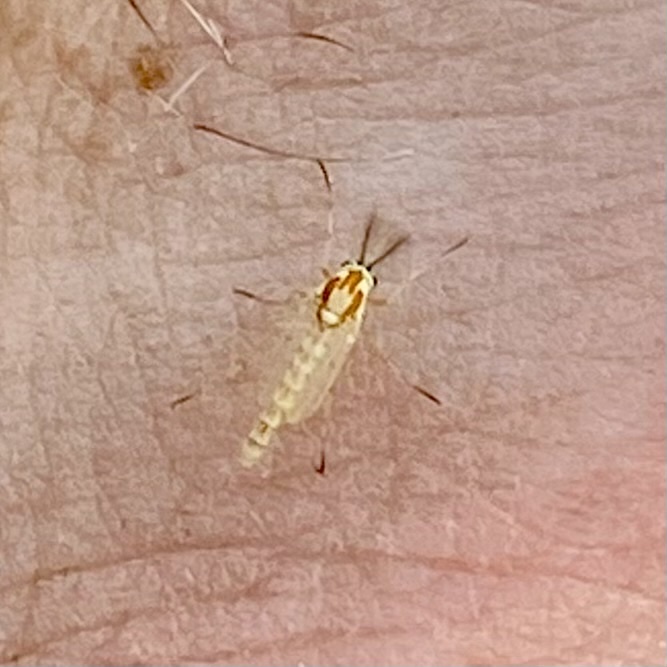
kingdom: Animalia
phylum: Arthropoda
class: Insecta
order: Diptera
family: Chironomidae
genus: Procladius
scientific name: Procladius bellus
